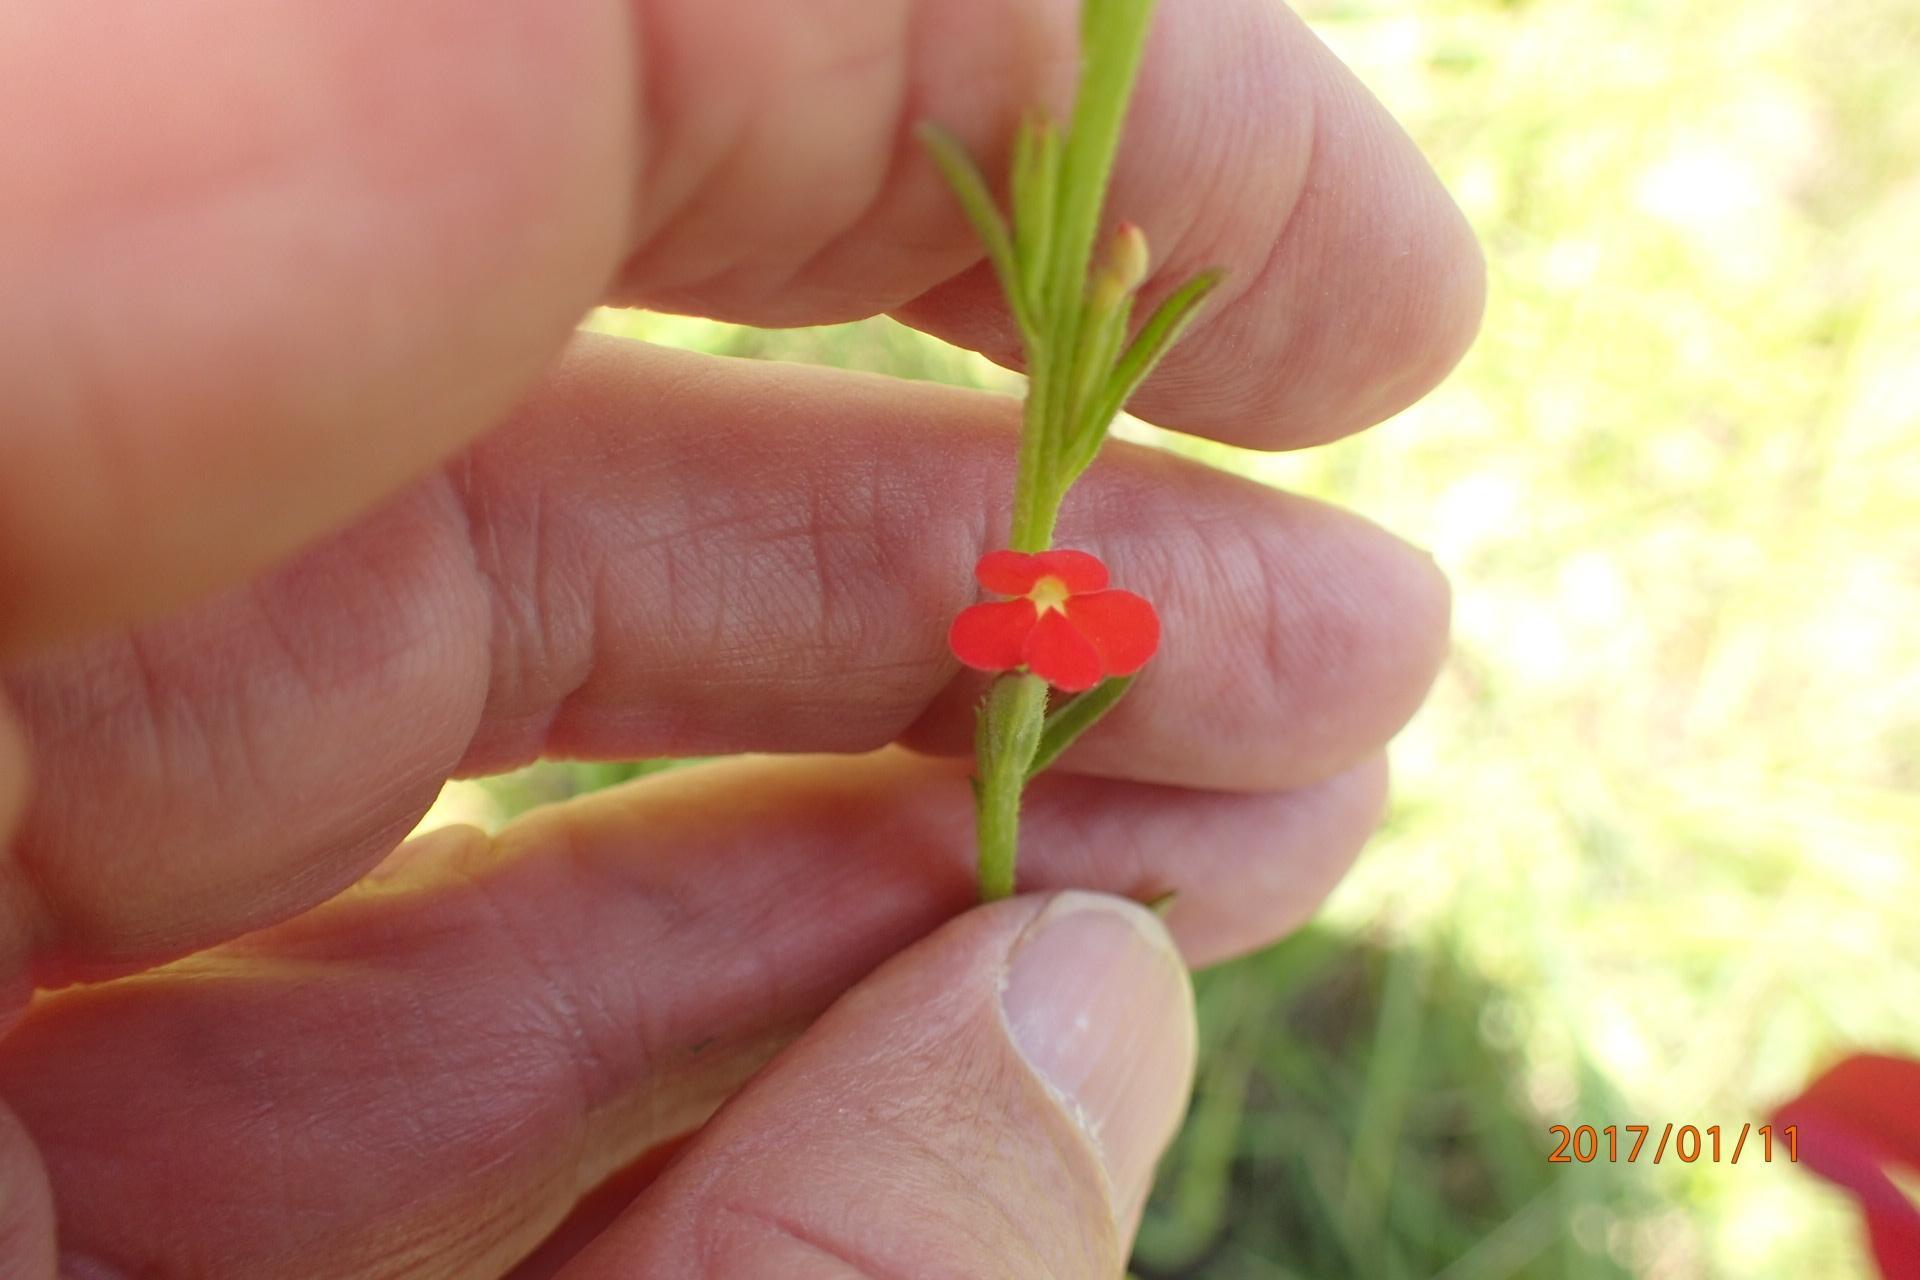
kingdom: Plantae
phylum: Tracheophyta
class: Magnoliopsida
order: Lamiales
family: Orobanchaceae
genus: Striga
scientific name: Striga asiatica
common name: Asiatic witchweed
